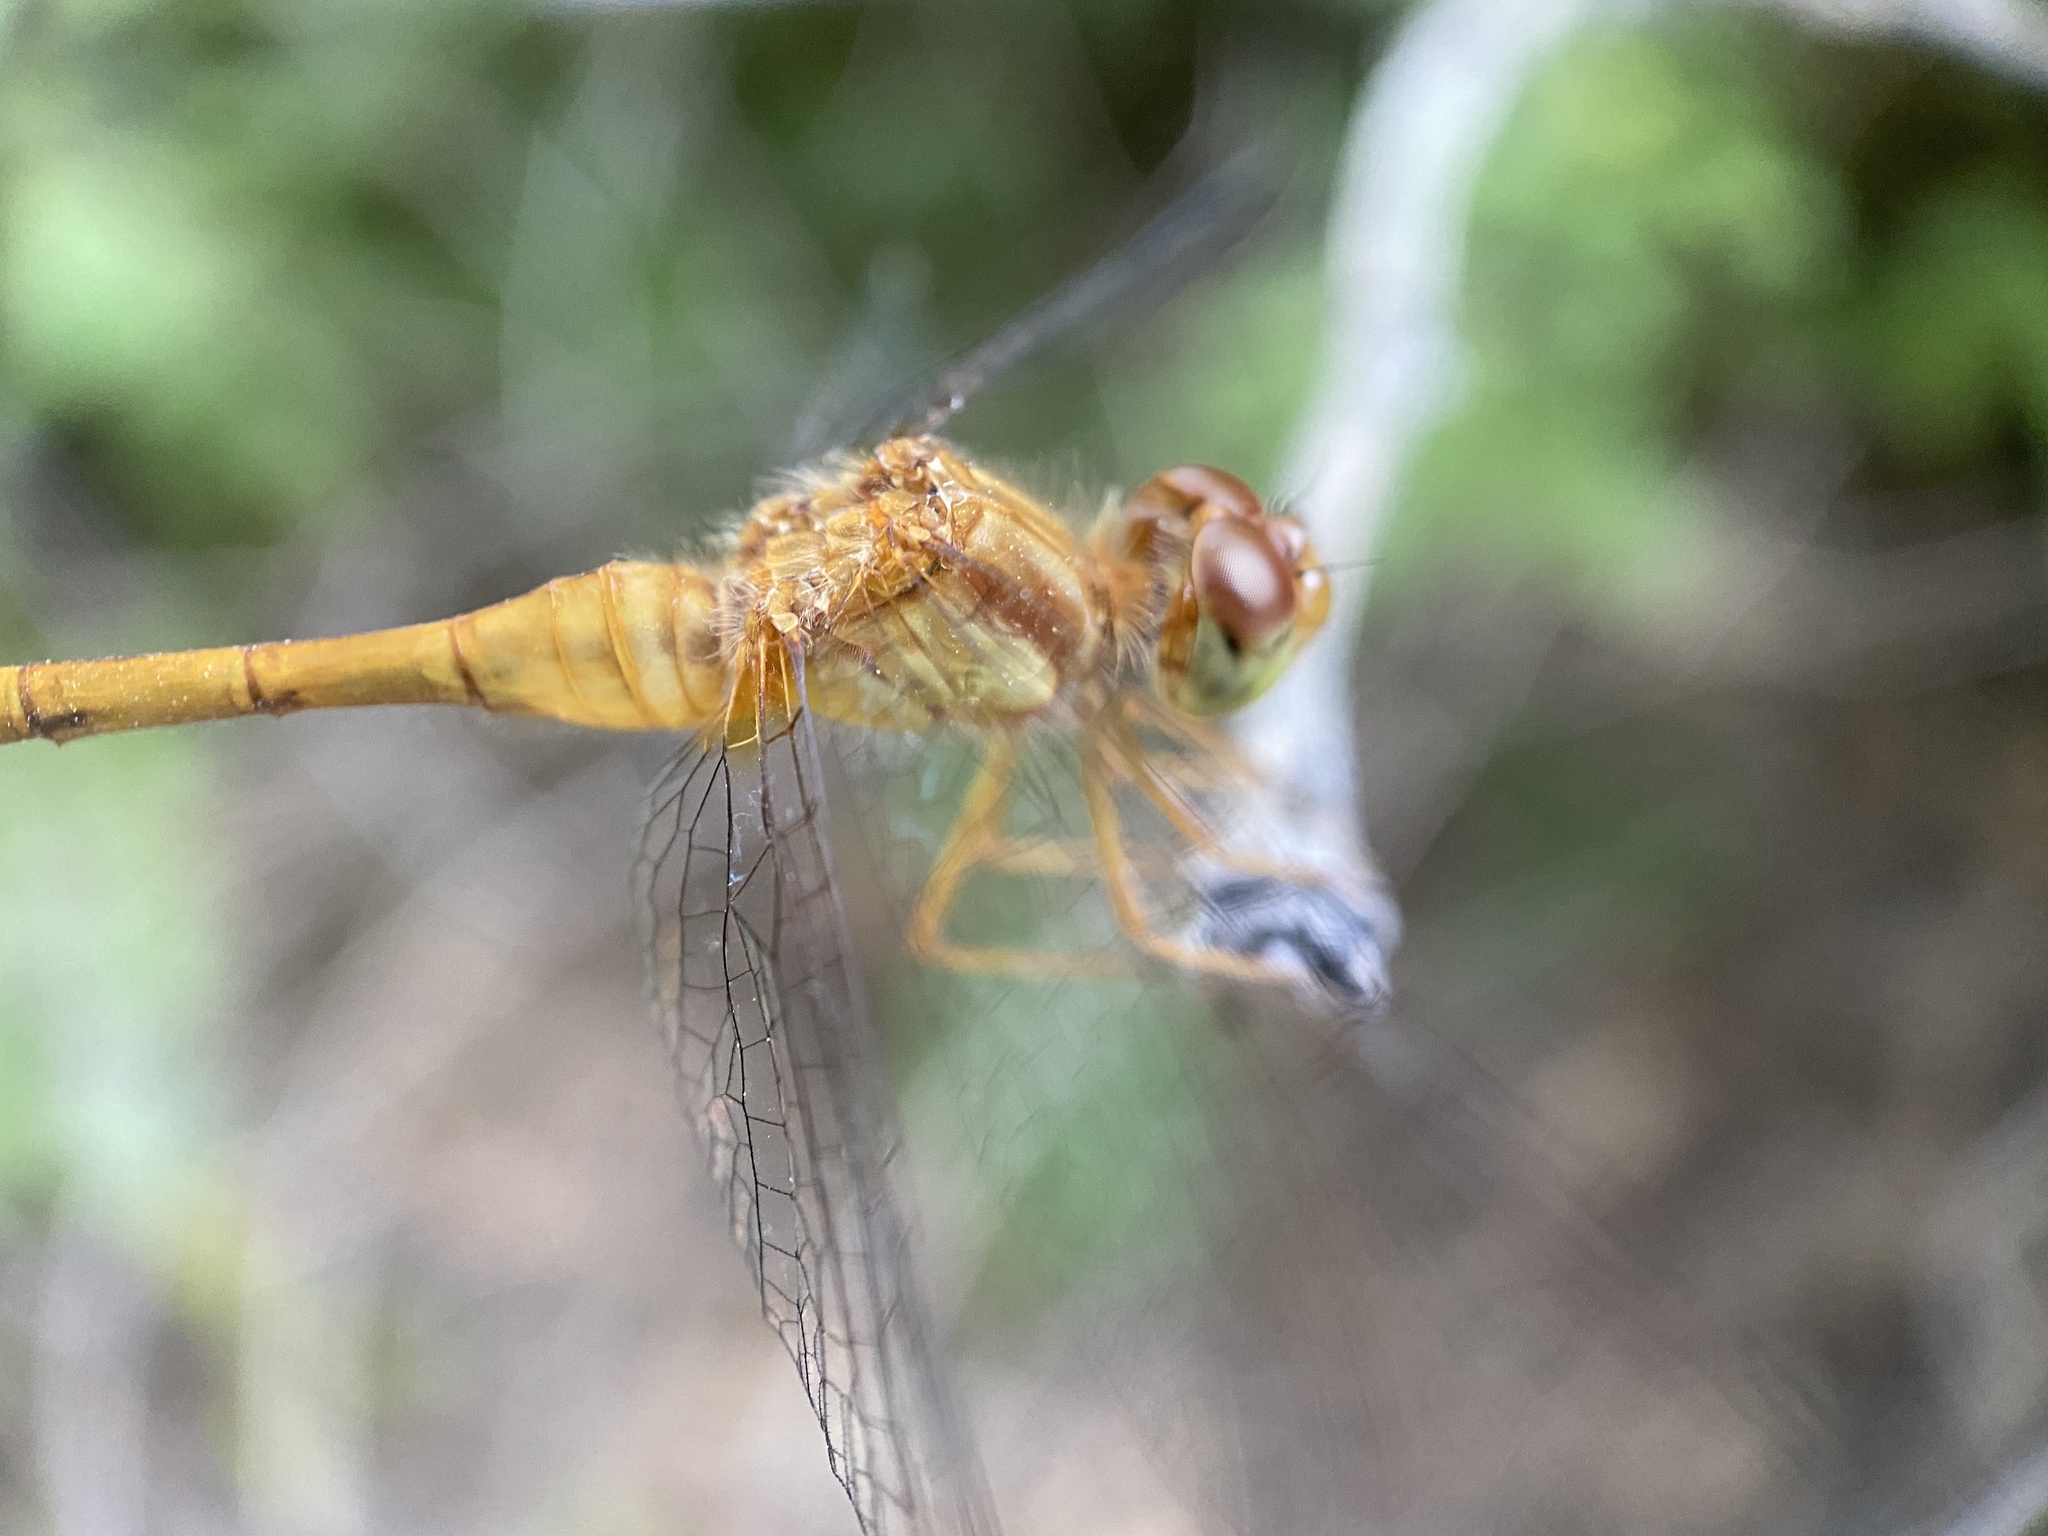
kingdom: Animalia
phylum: Arthropoda
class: Insecta
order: Odonata
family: Libellulidae
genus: Sympetrum
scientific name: Sympetrum vicinum
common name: Autumn meadowhawk
